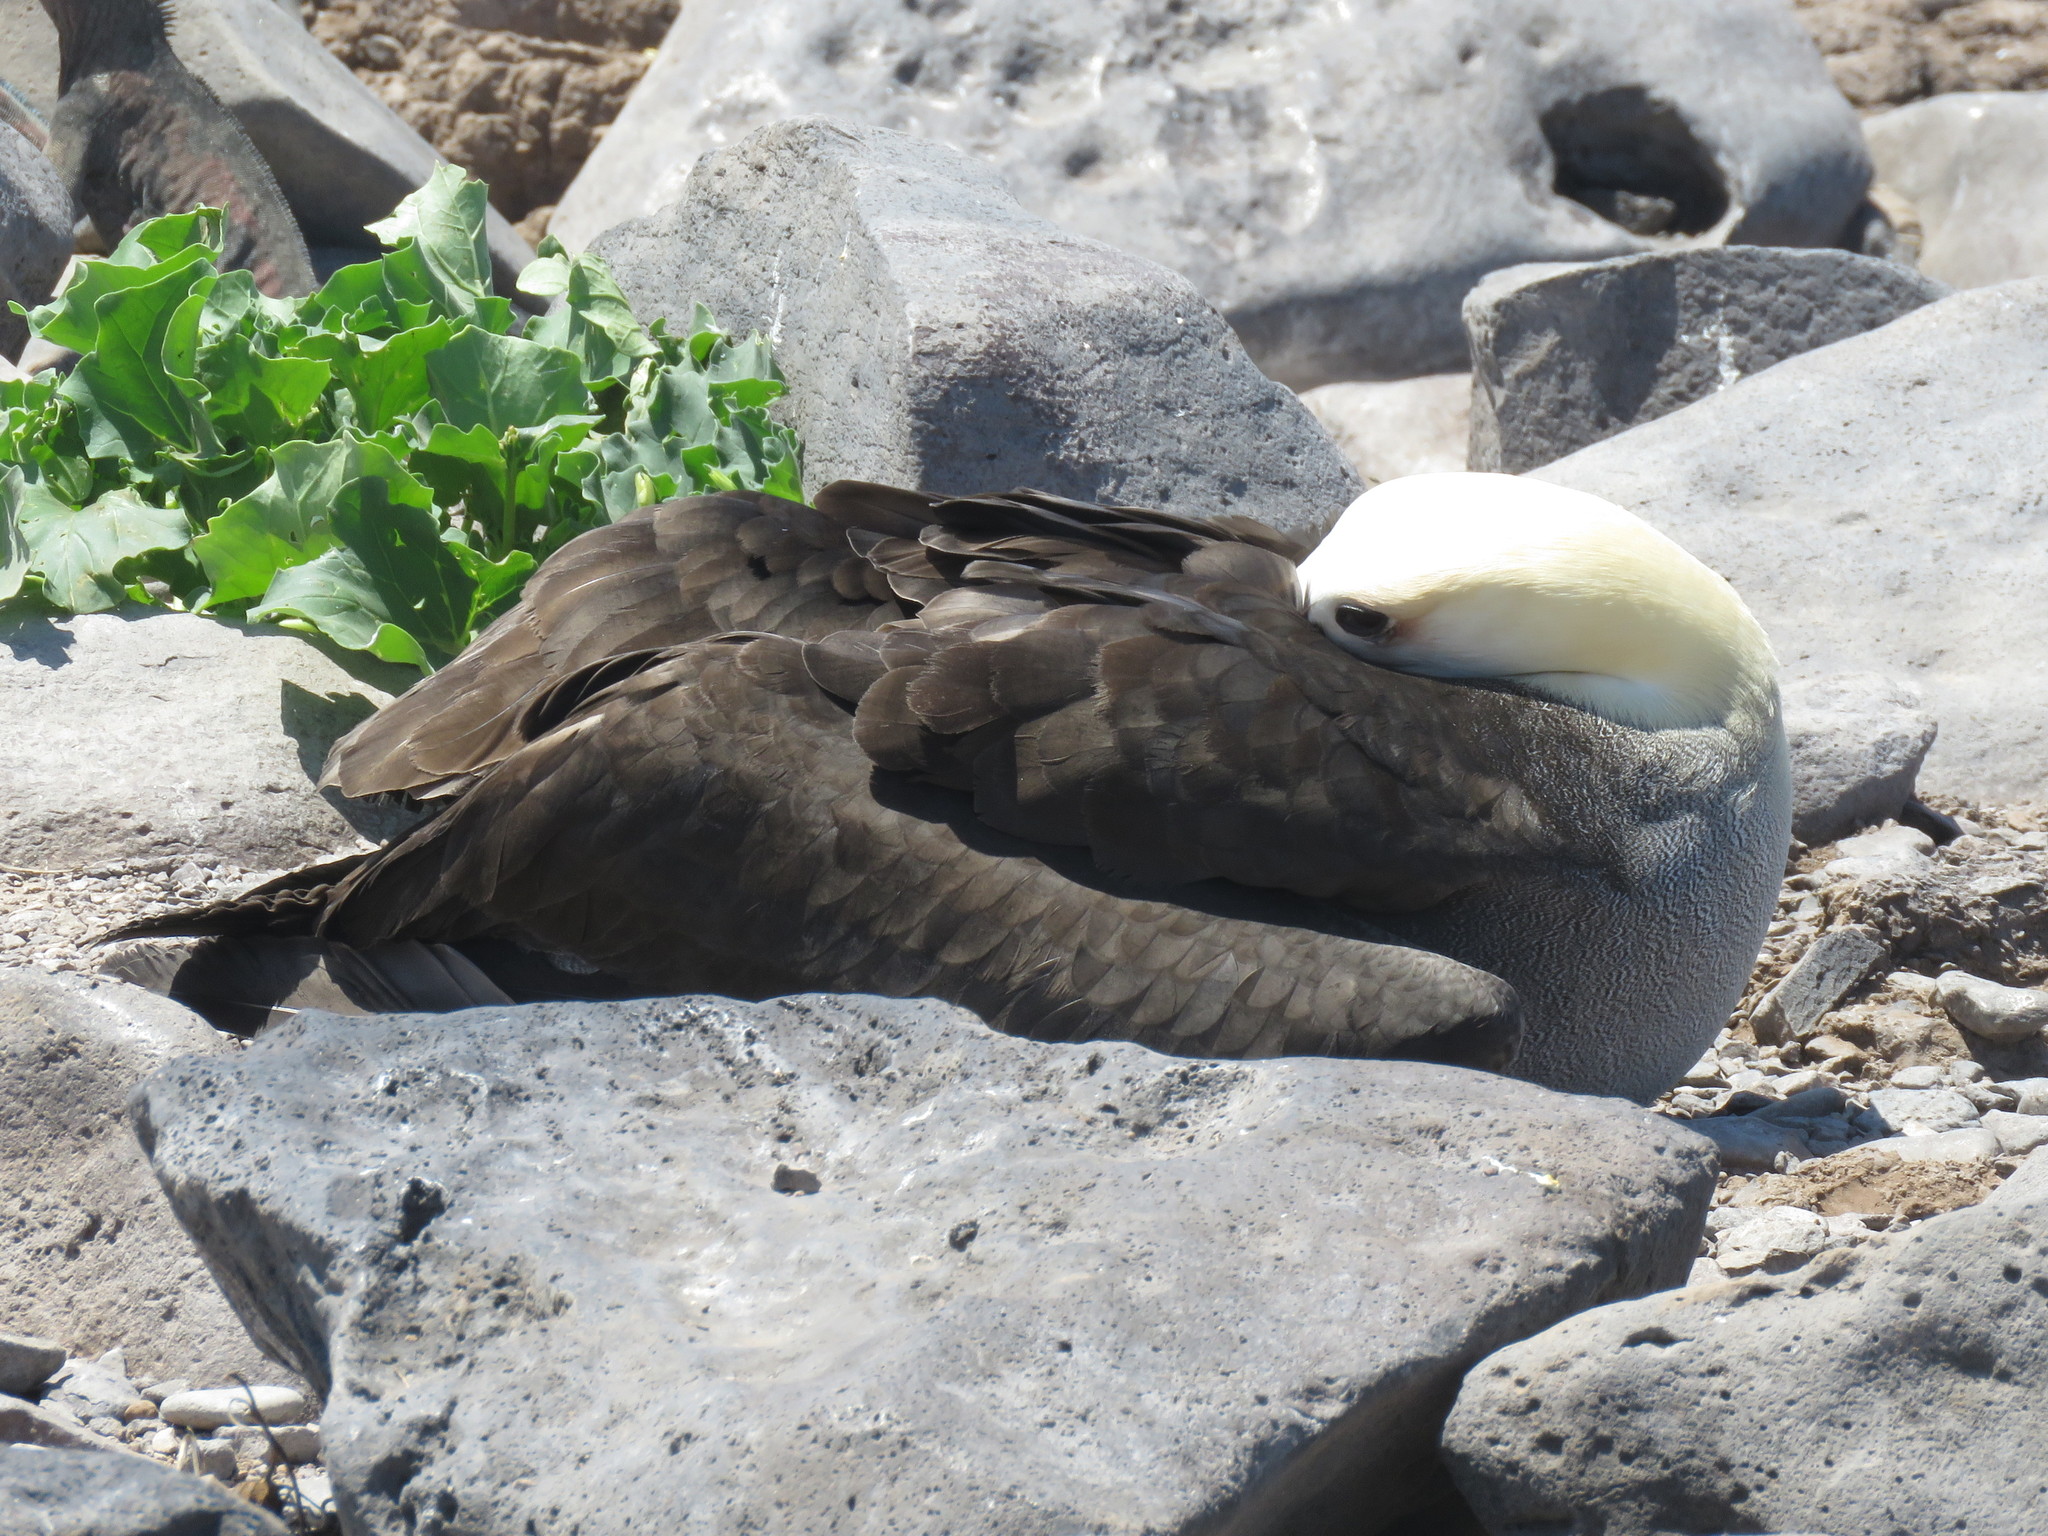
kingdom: Animalia
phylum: Chordata
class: Aves
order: Procellariiformes
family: Diomedeidae
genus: Phoebastria
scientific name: Phoebastria irrorata
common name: Waved albatross
